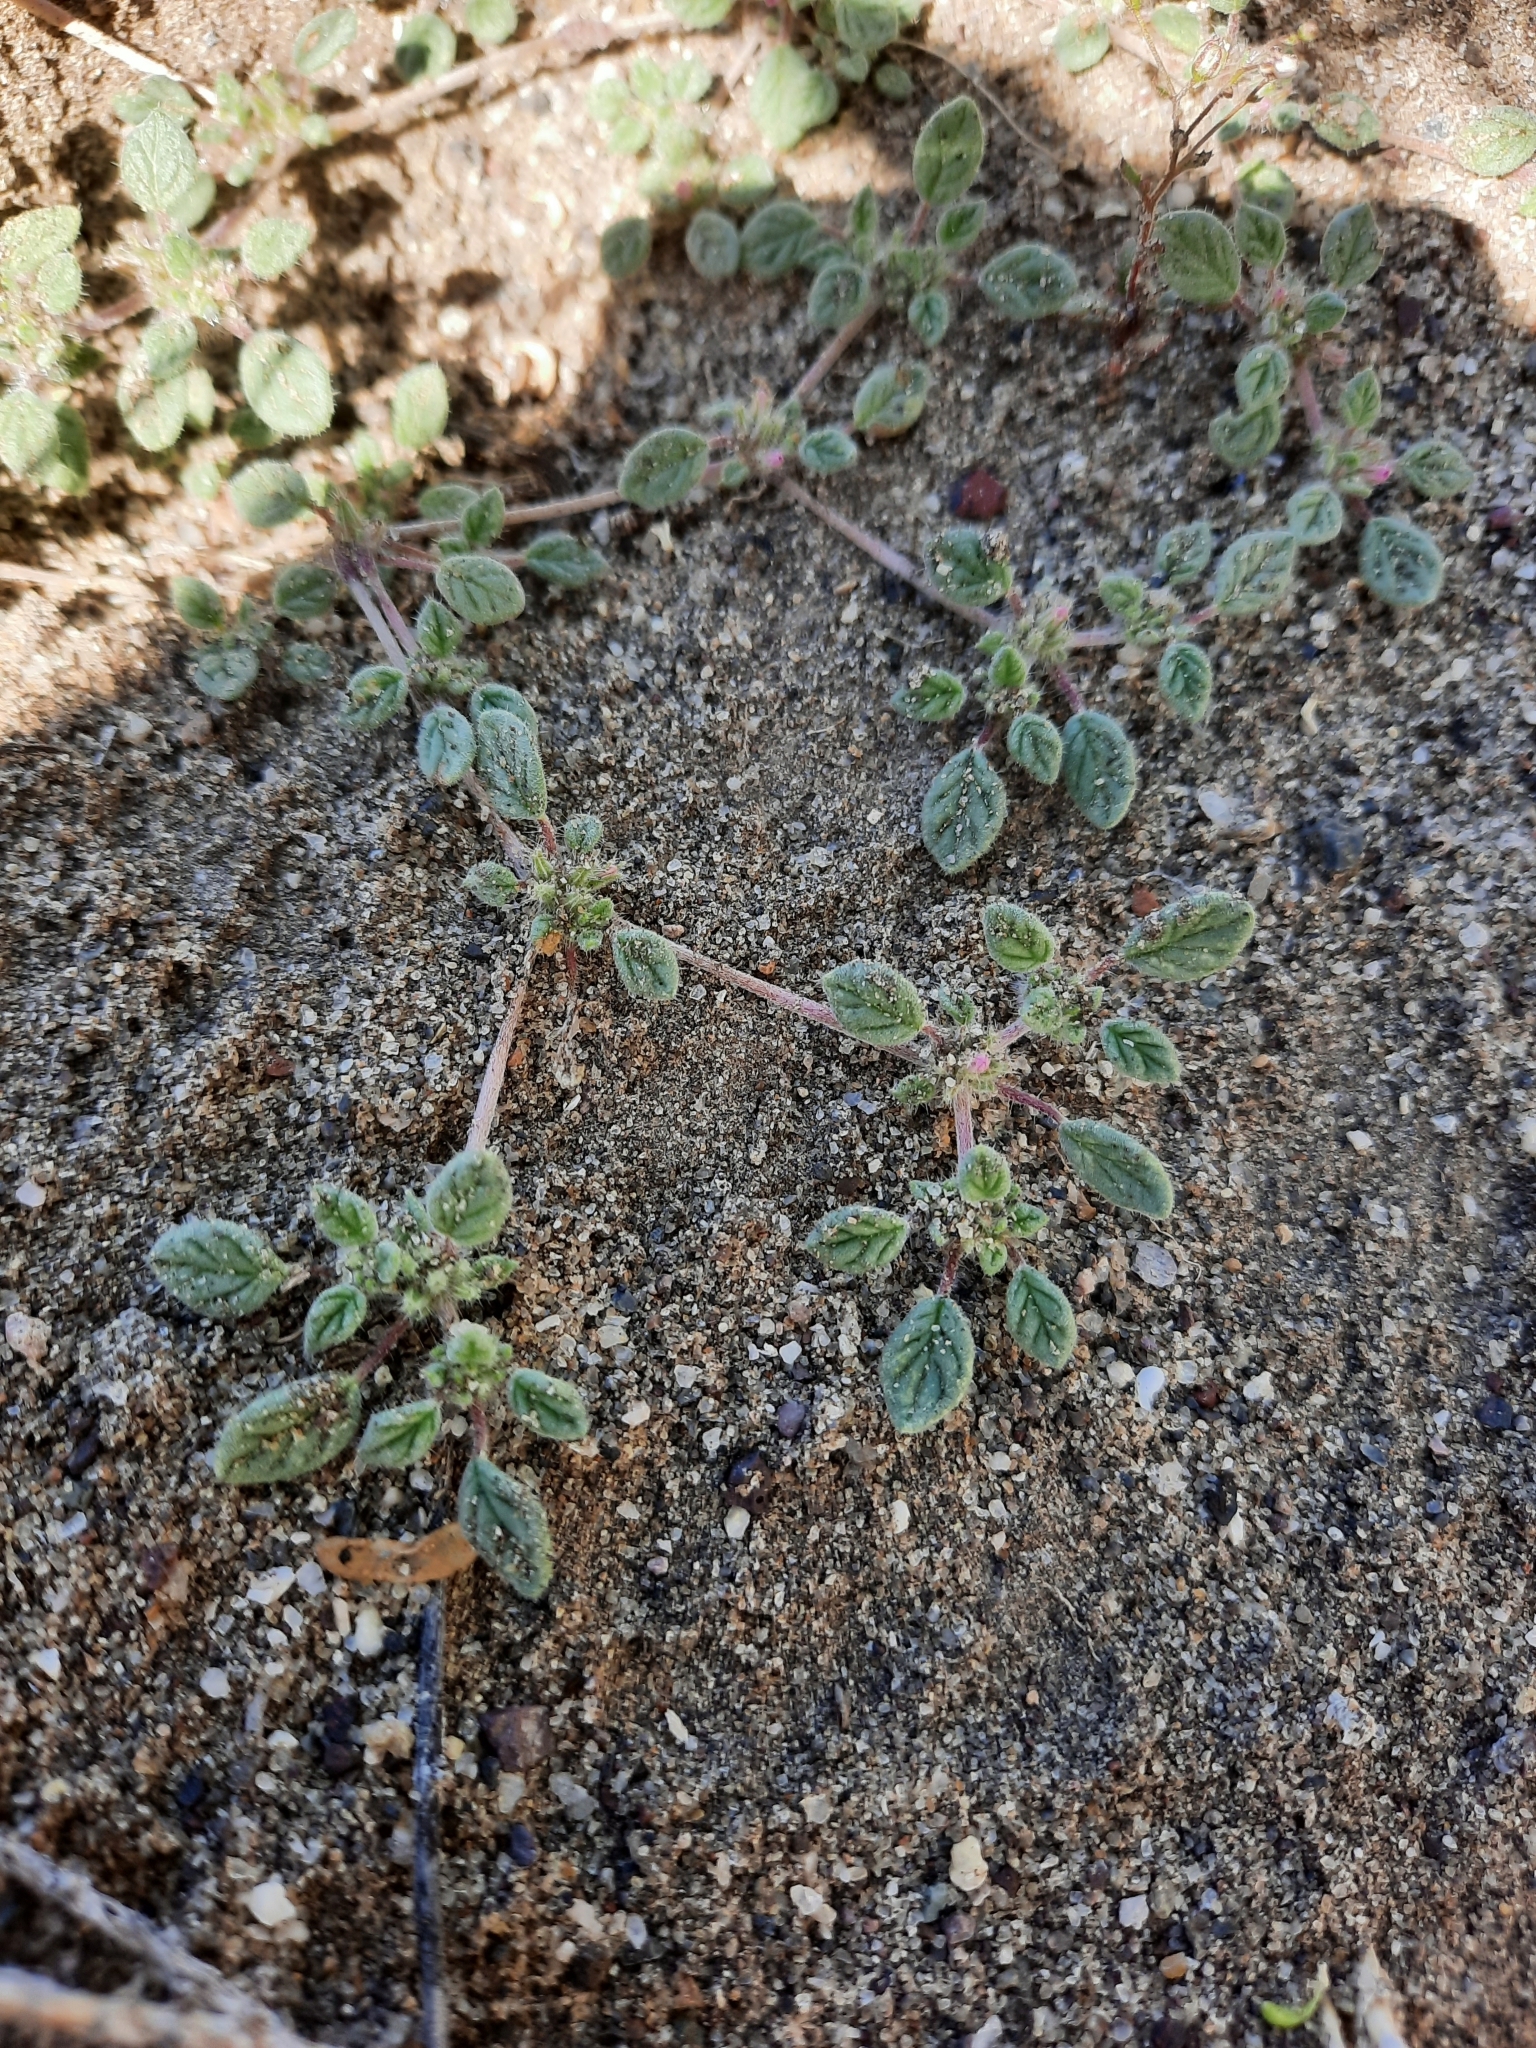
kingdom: Plantae
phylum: Tracheophyta
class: Magnoliopsida
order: Boraginales
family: Ehretiaceae
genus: Tiquilia
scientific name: Tiquilia nuttallii
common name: Rosette tiquilia
